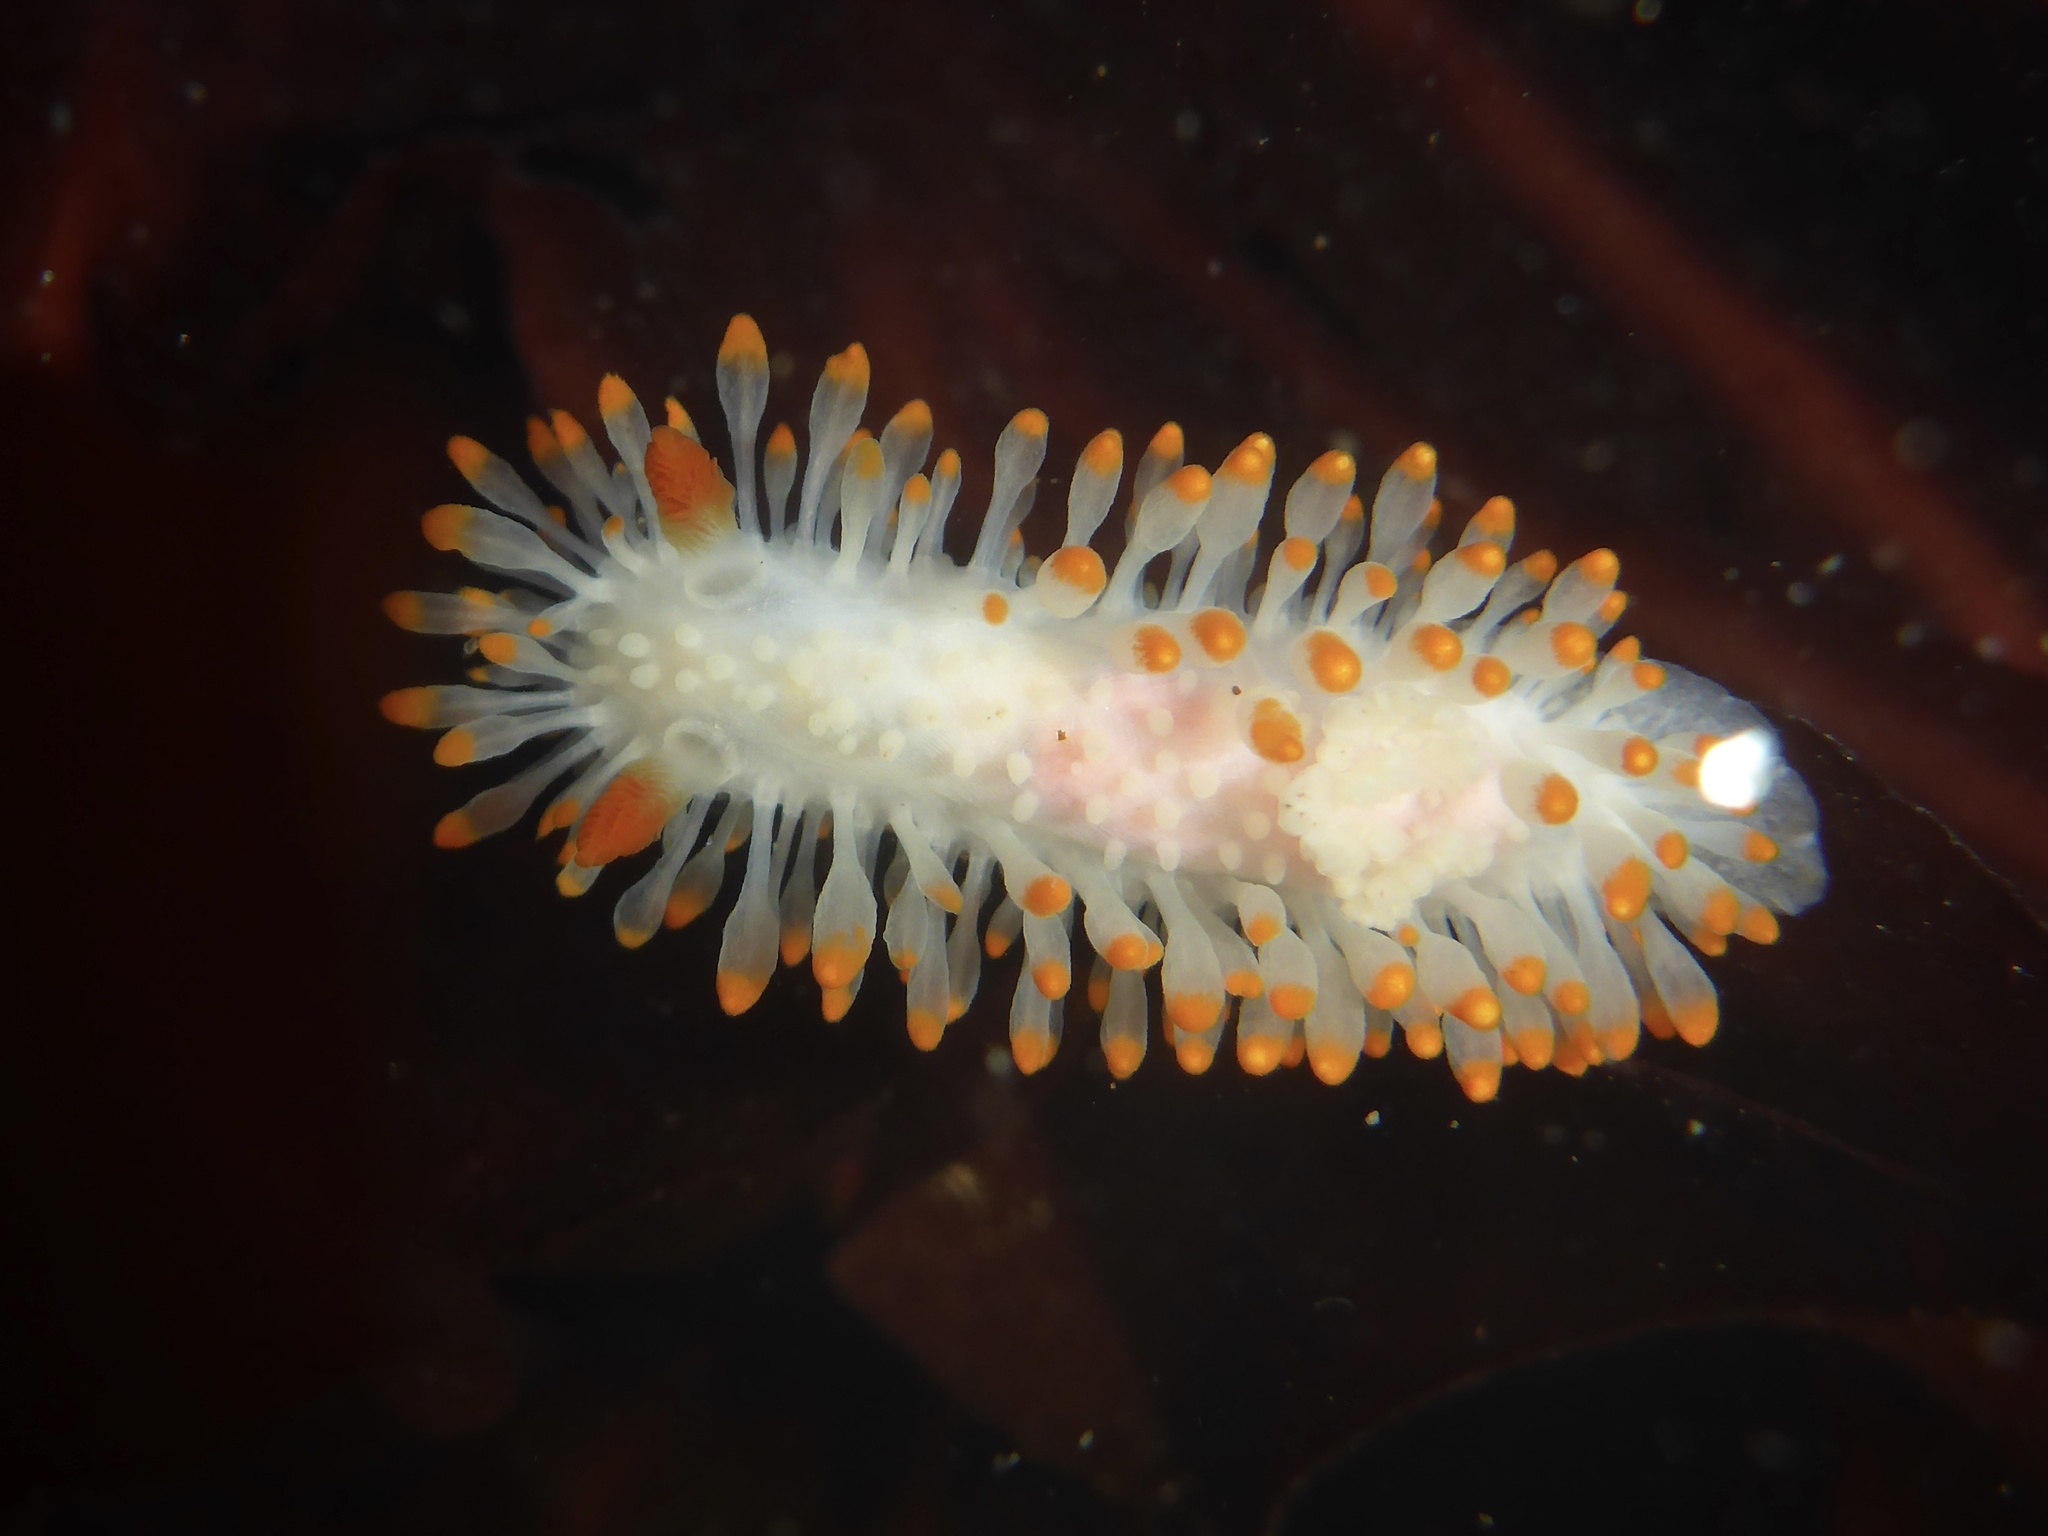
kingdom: Animalia
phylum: Mollusca
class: Gastropoda
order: Nudibranchia
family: Polyceridae
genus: Limacia
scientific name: Limacia cockerelli
